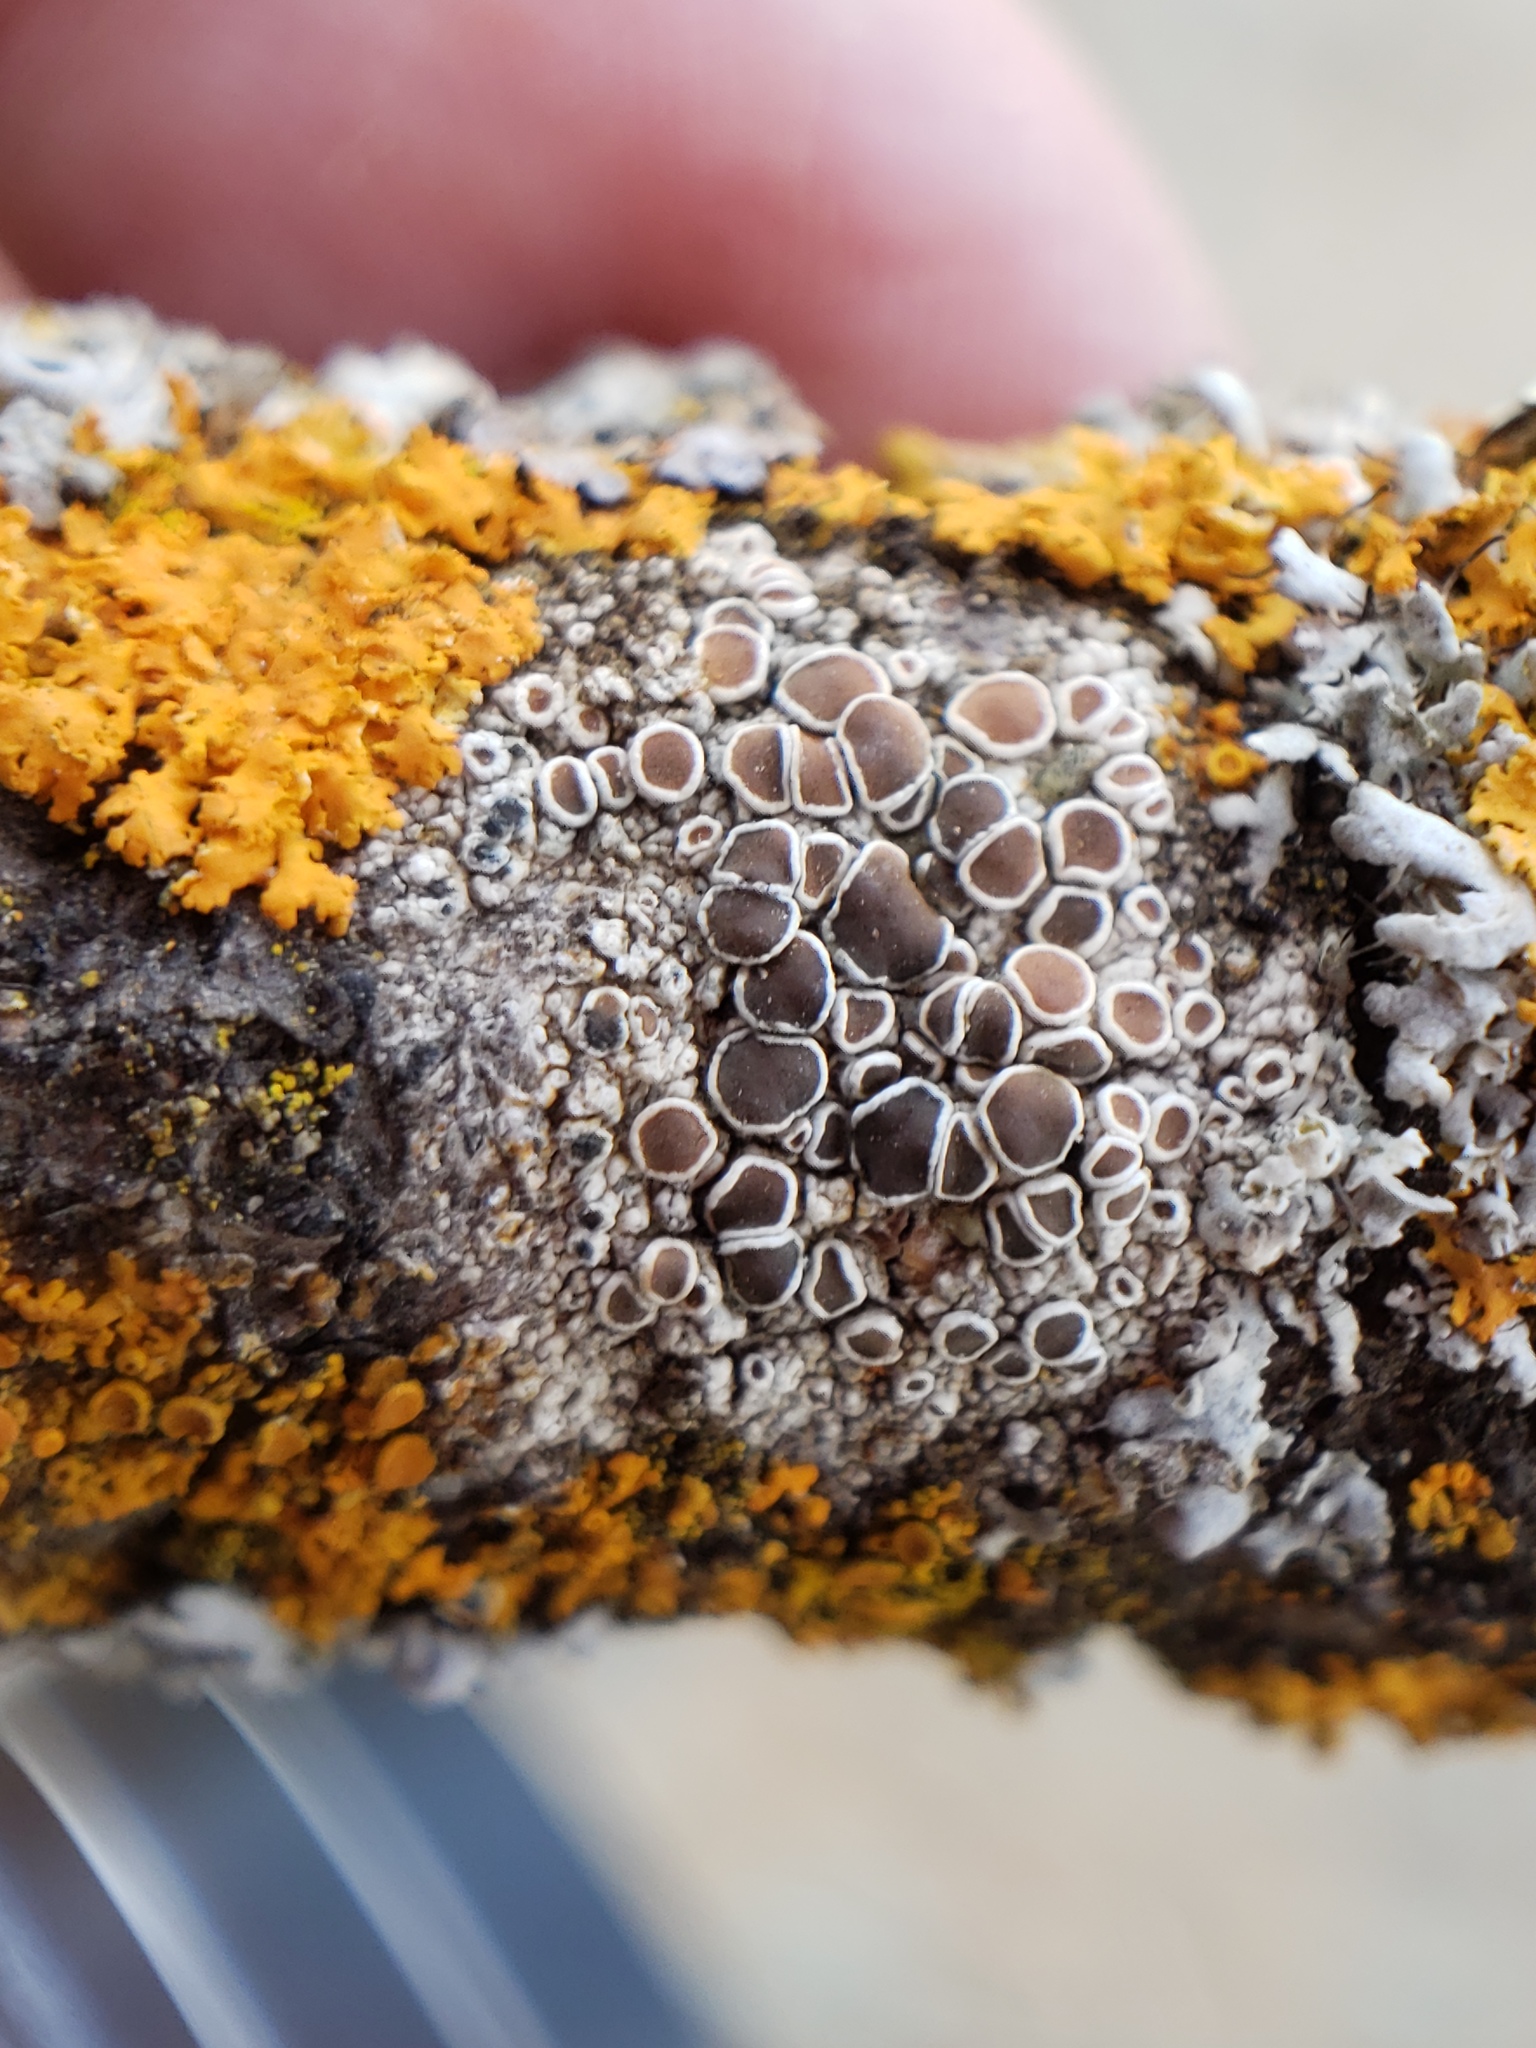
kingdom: Fungi
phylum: Ascomycota
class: Lecanoromycetes
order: Lecanorales
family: Lecanoraceae
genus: Lecanora
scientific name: Lecanora hybocarpa
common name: Bumpy rim-lichen
